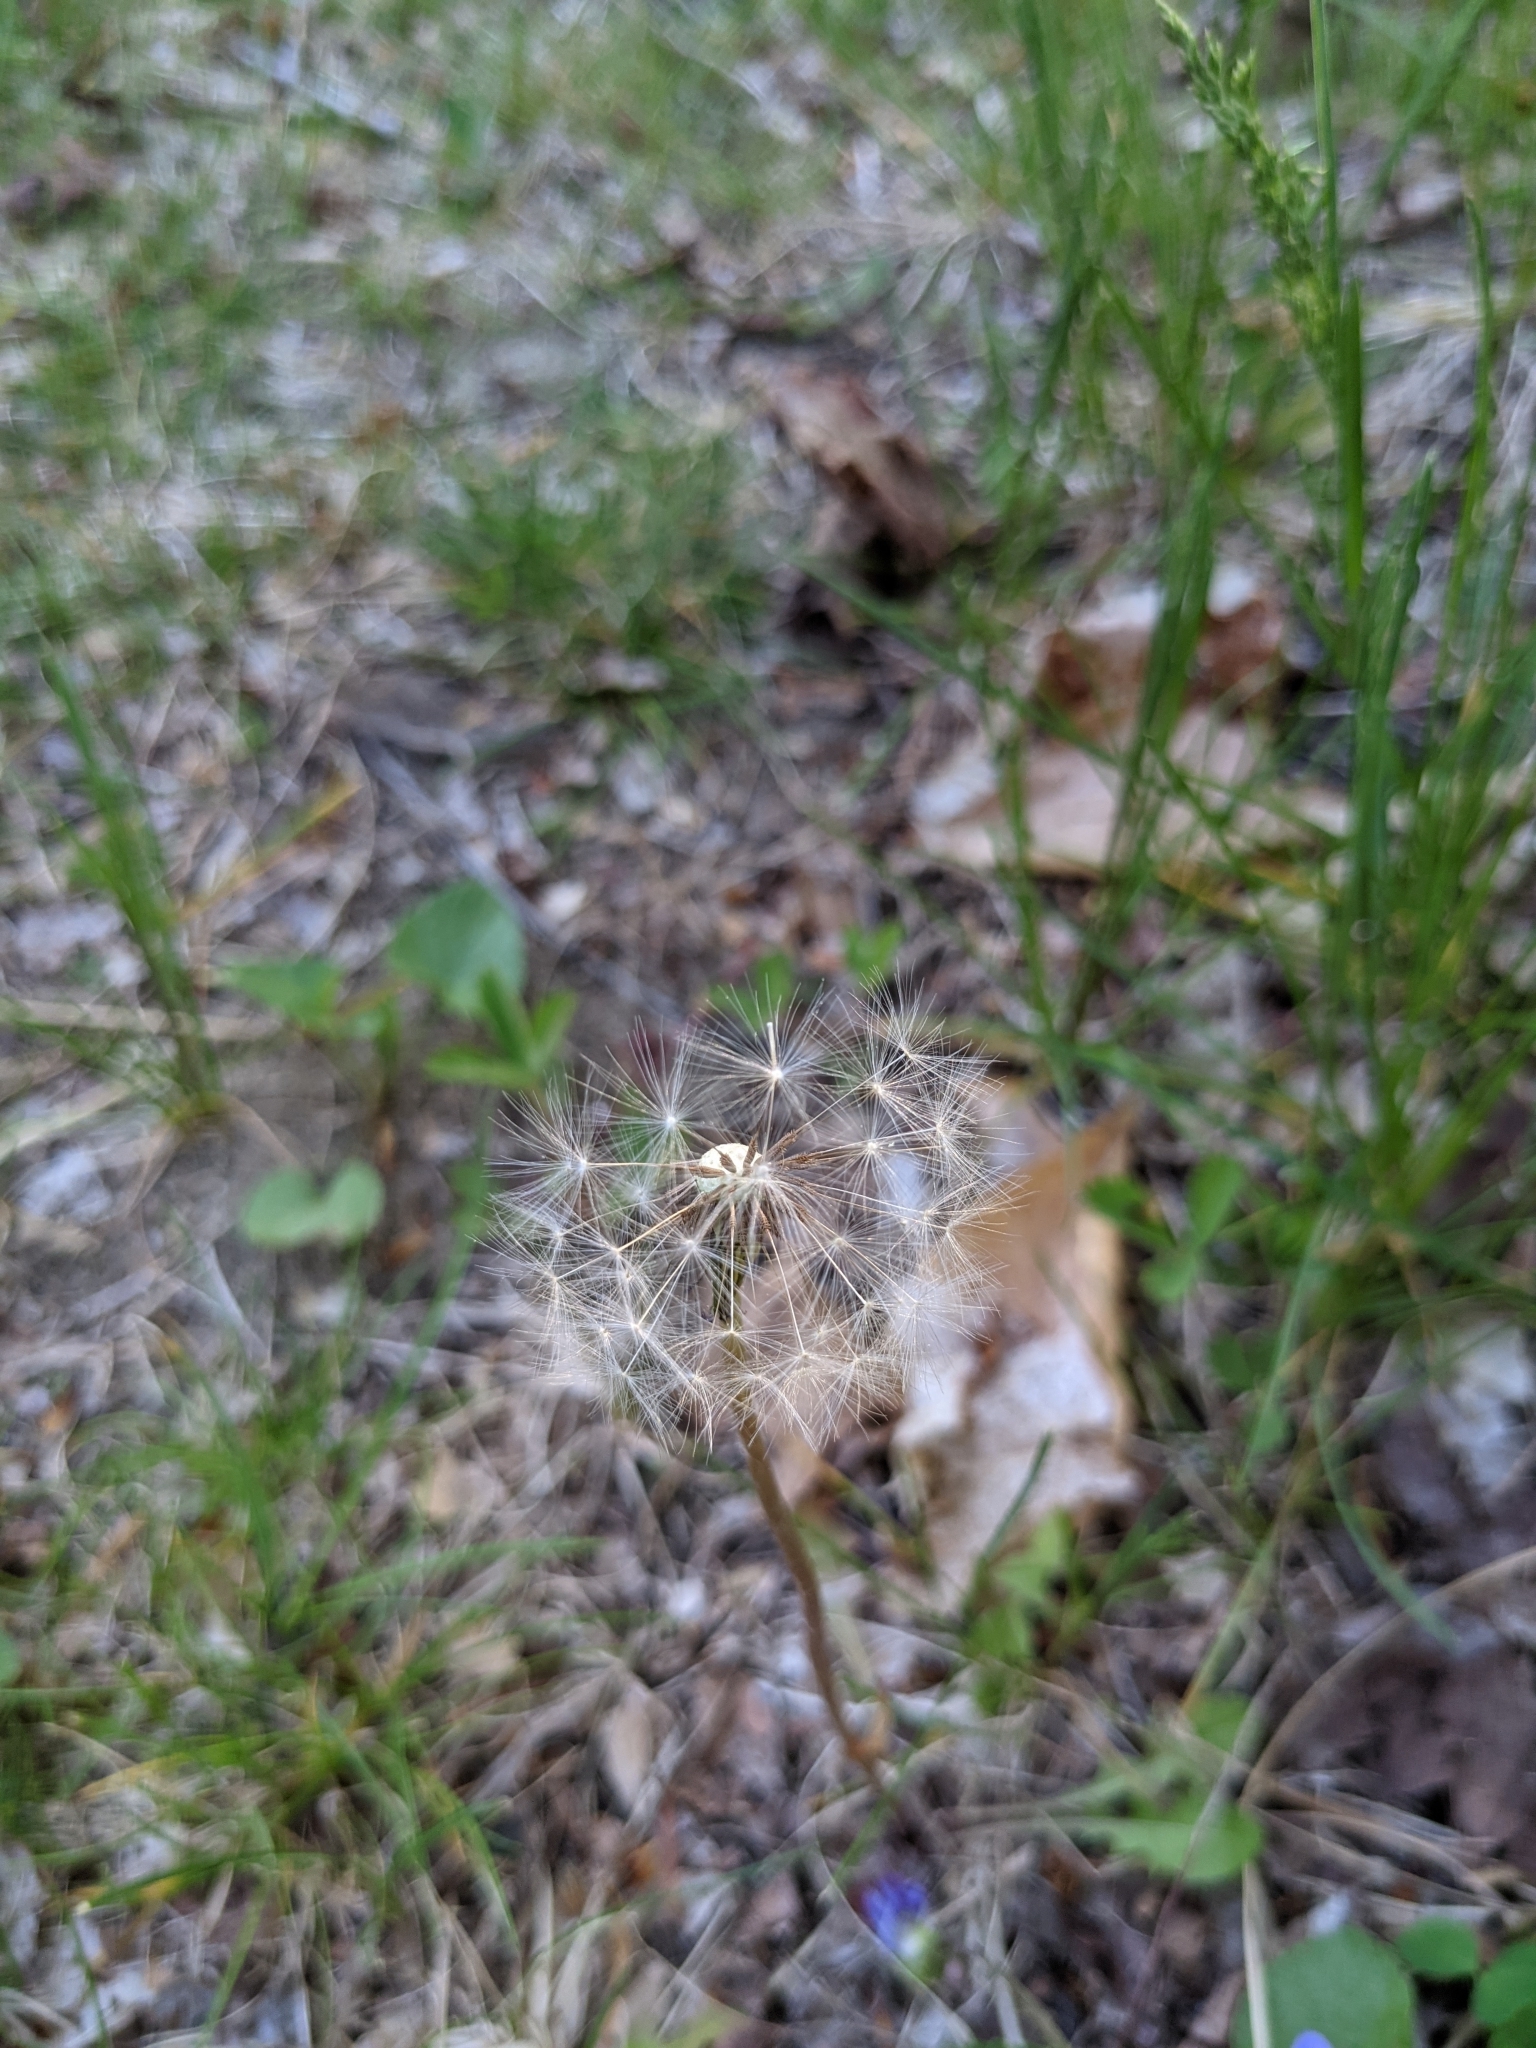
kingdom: Plantae
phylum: Tracheophyta
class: Magnoliopsida
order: Asterales
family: Asteraceae
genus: Taraxacum
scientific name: Taraxacum officinale
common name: Common dandelion
